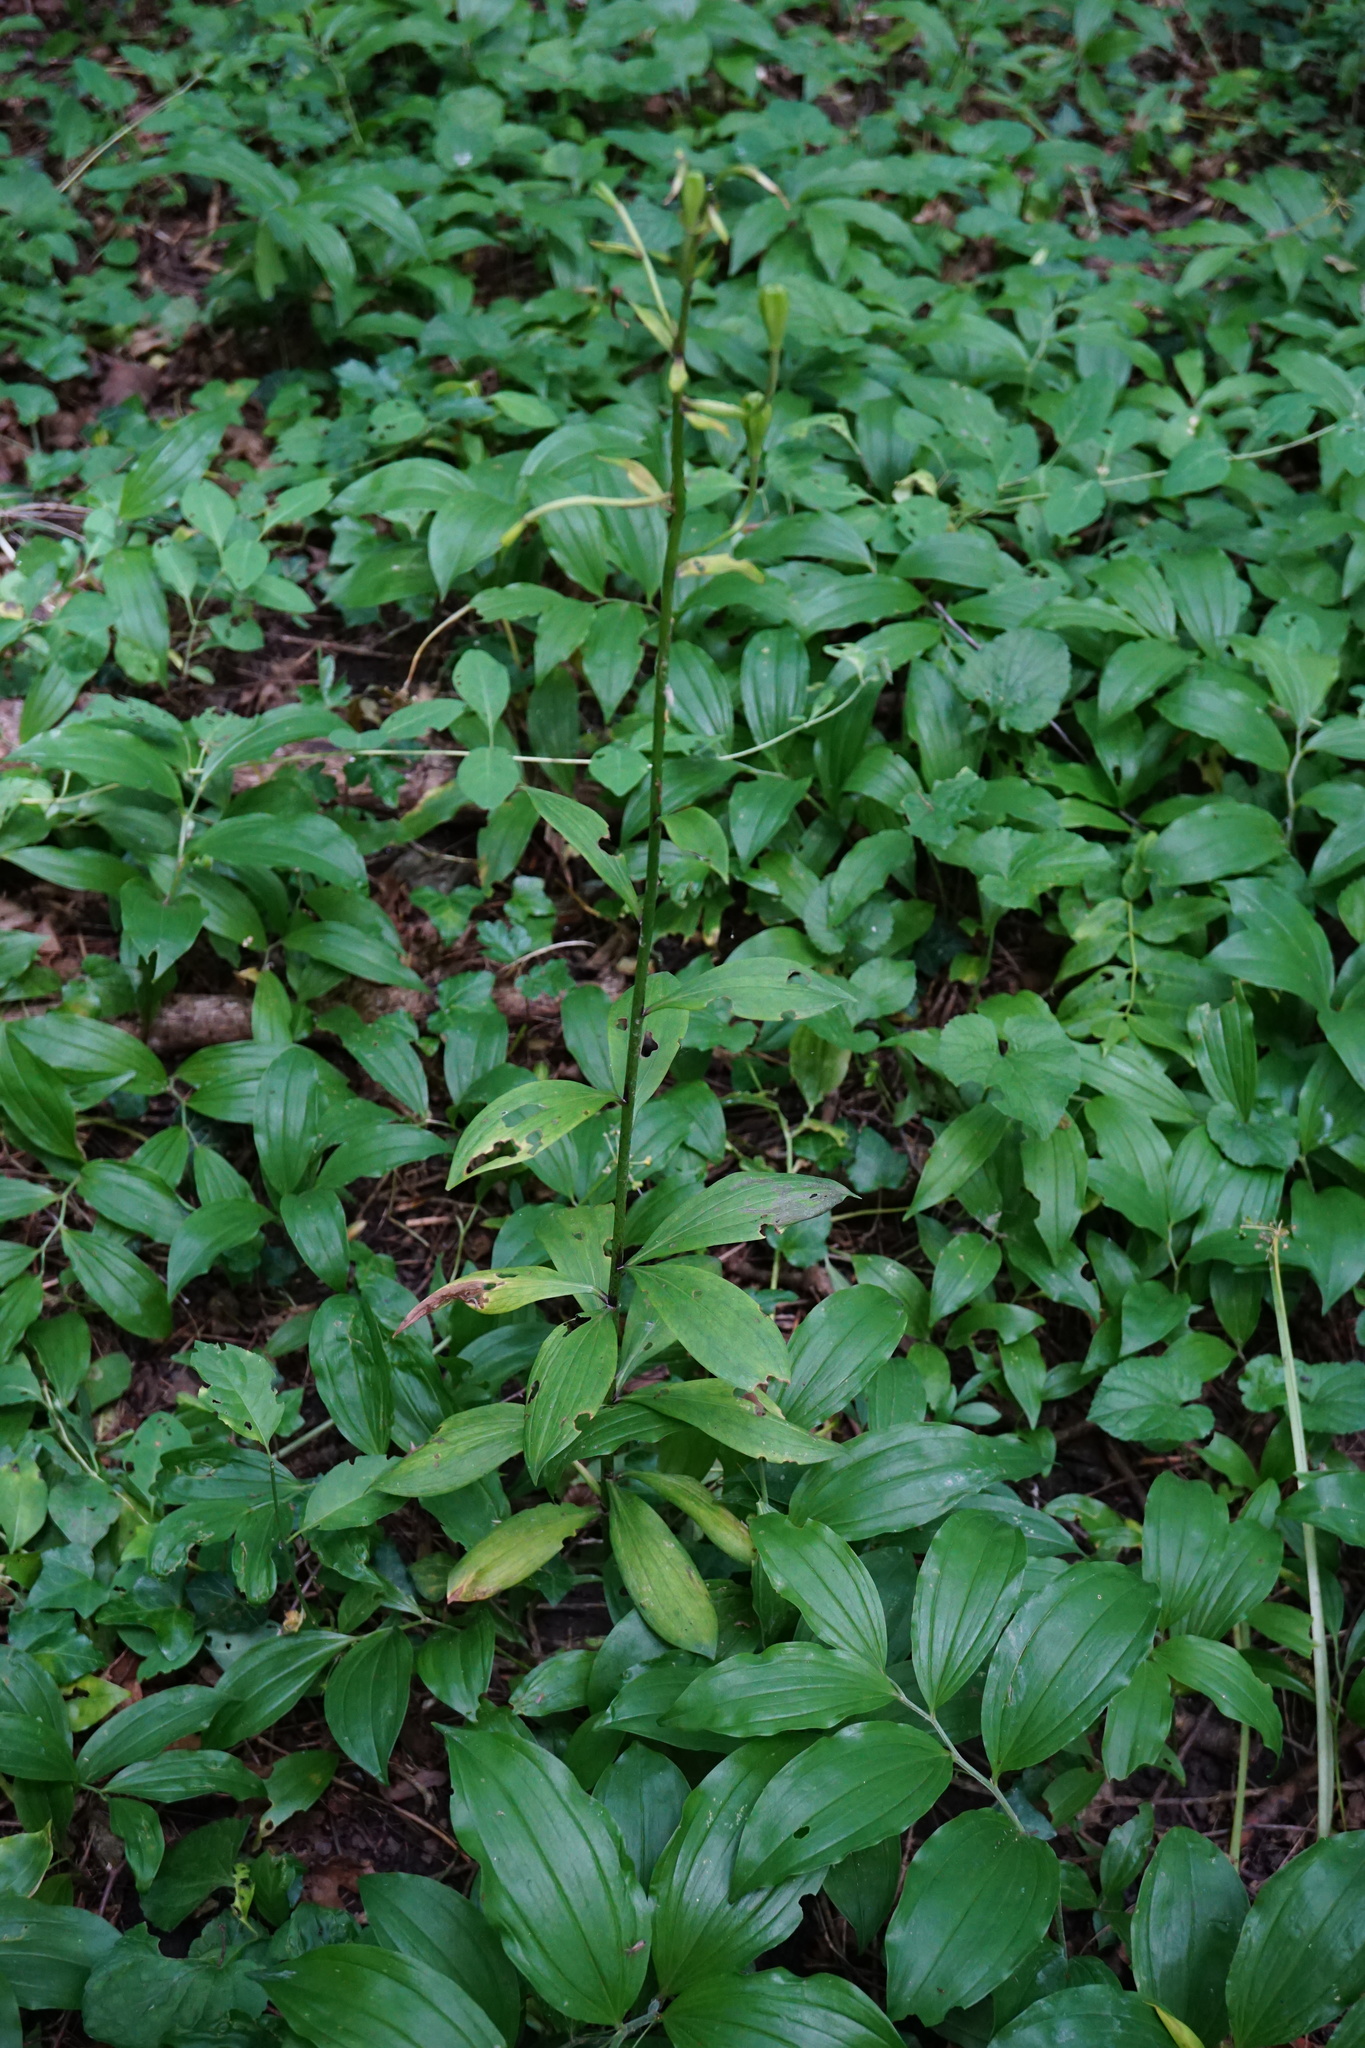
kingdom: Plantae
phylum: Tracheophyta
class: Liliopsida
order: Liliales
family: Liliaceae
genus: Lilium
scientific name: Lilium martagon
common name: Martagon lily
